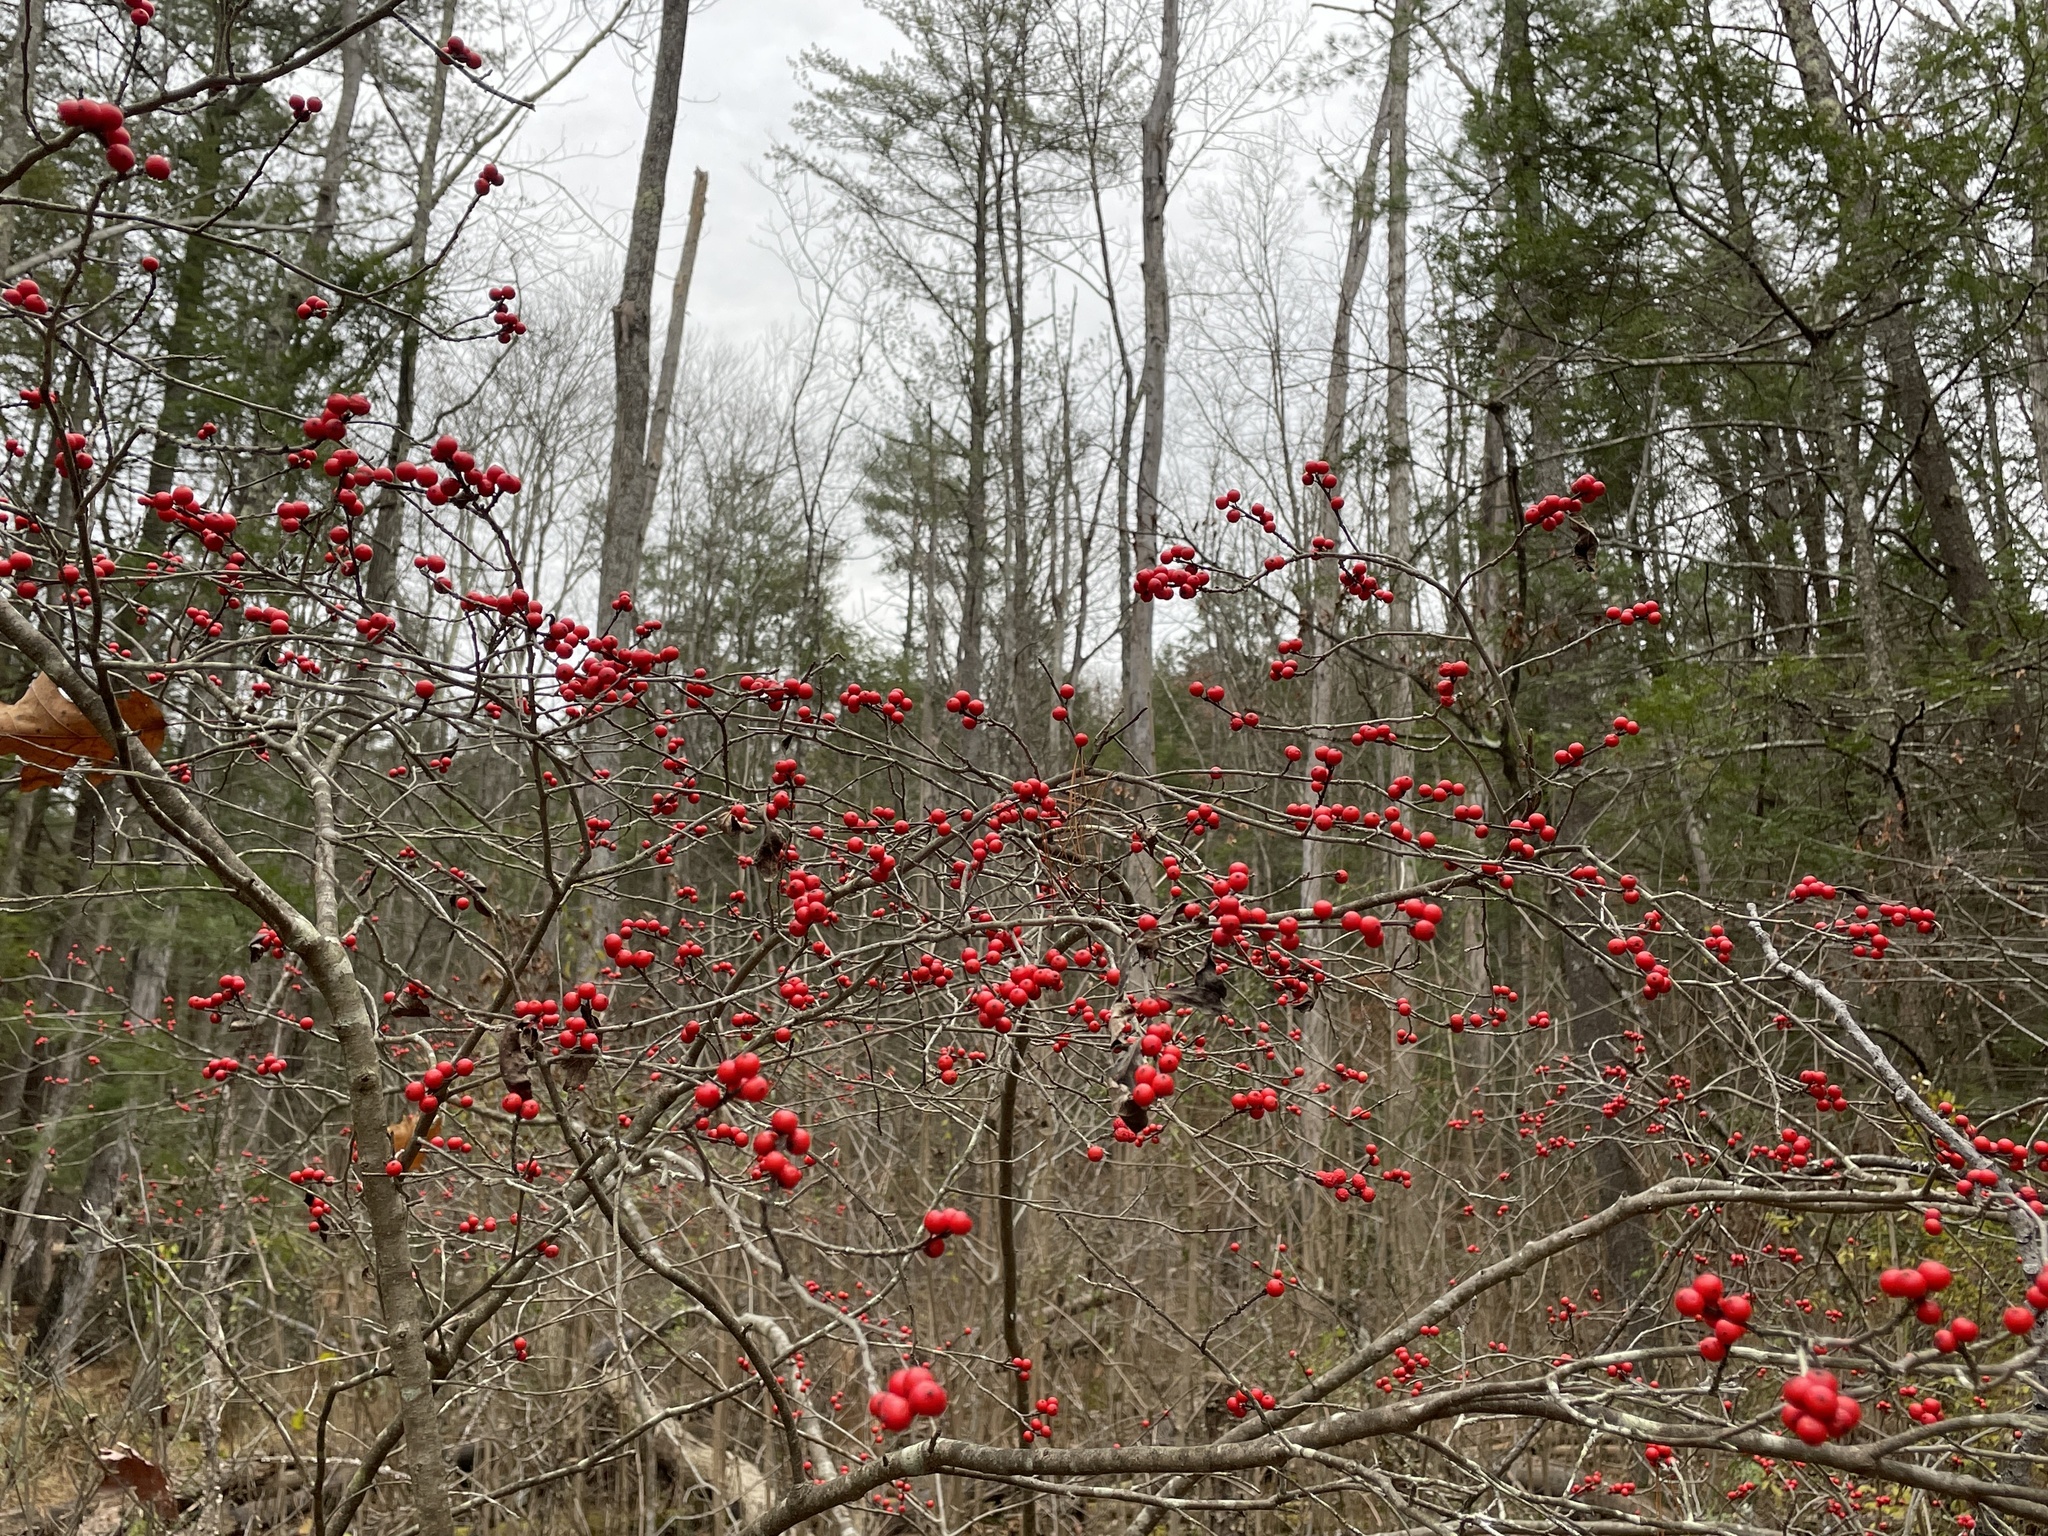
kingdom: Plantae
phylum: Tracheophyta
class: Magnoliopsida
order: Aquifoliales
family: Aquifoliaceae
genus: Ilex
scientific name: Ilex verticillata
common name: Virginia winterberry
